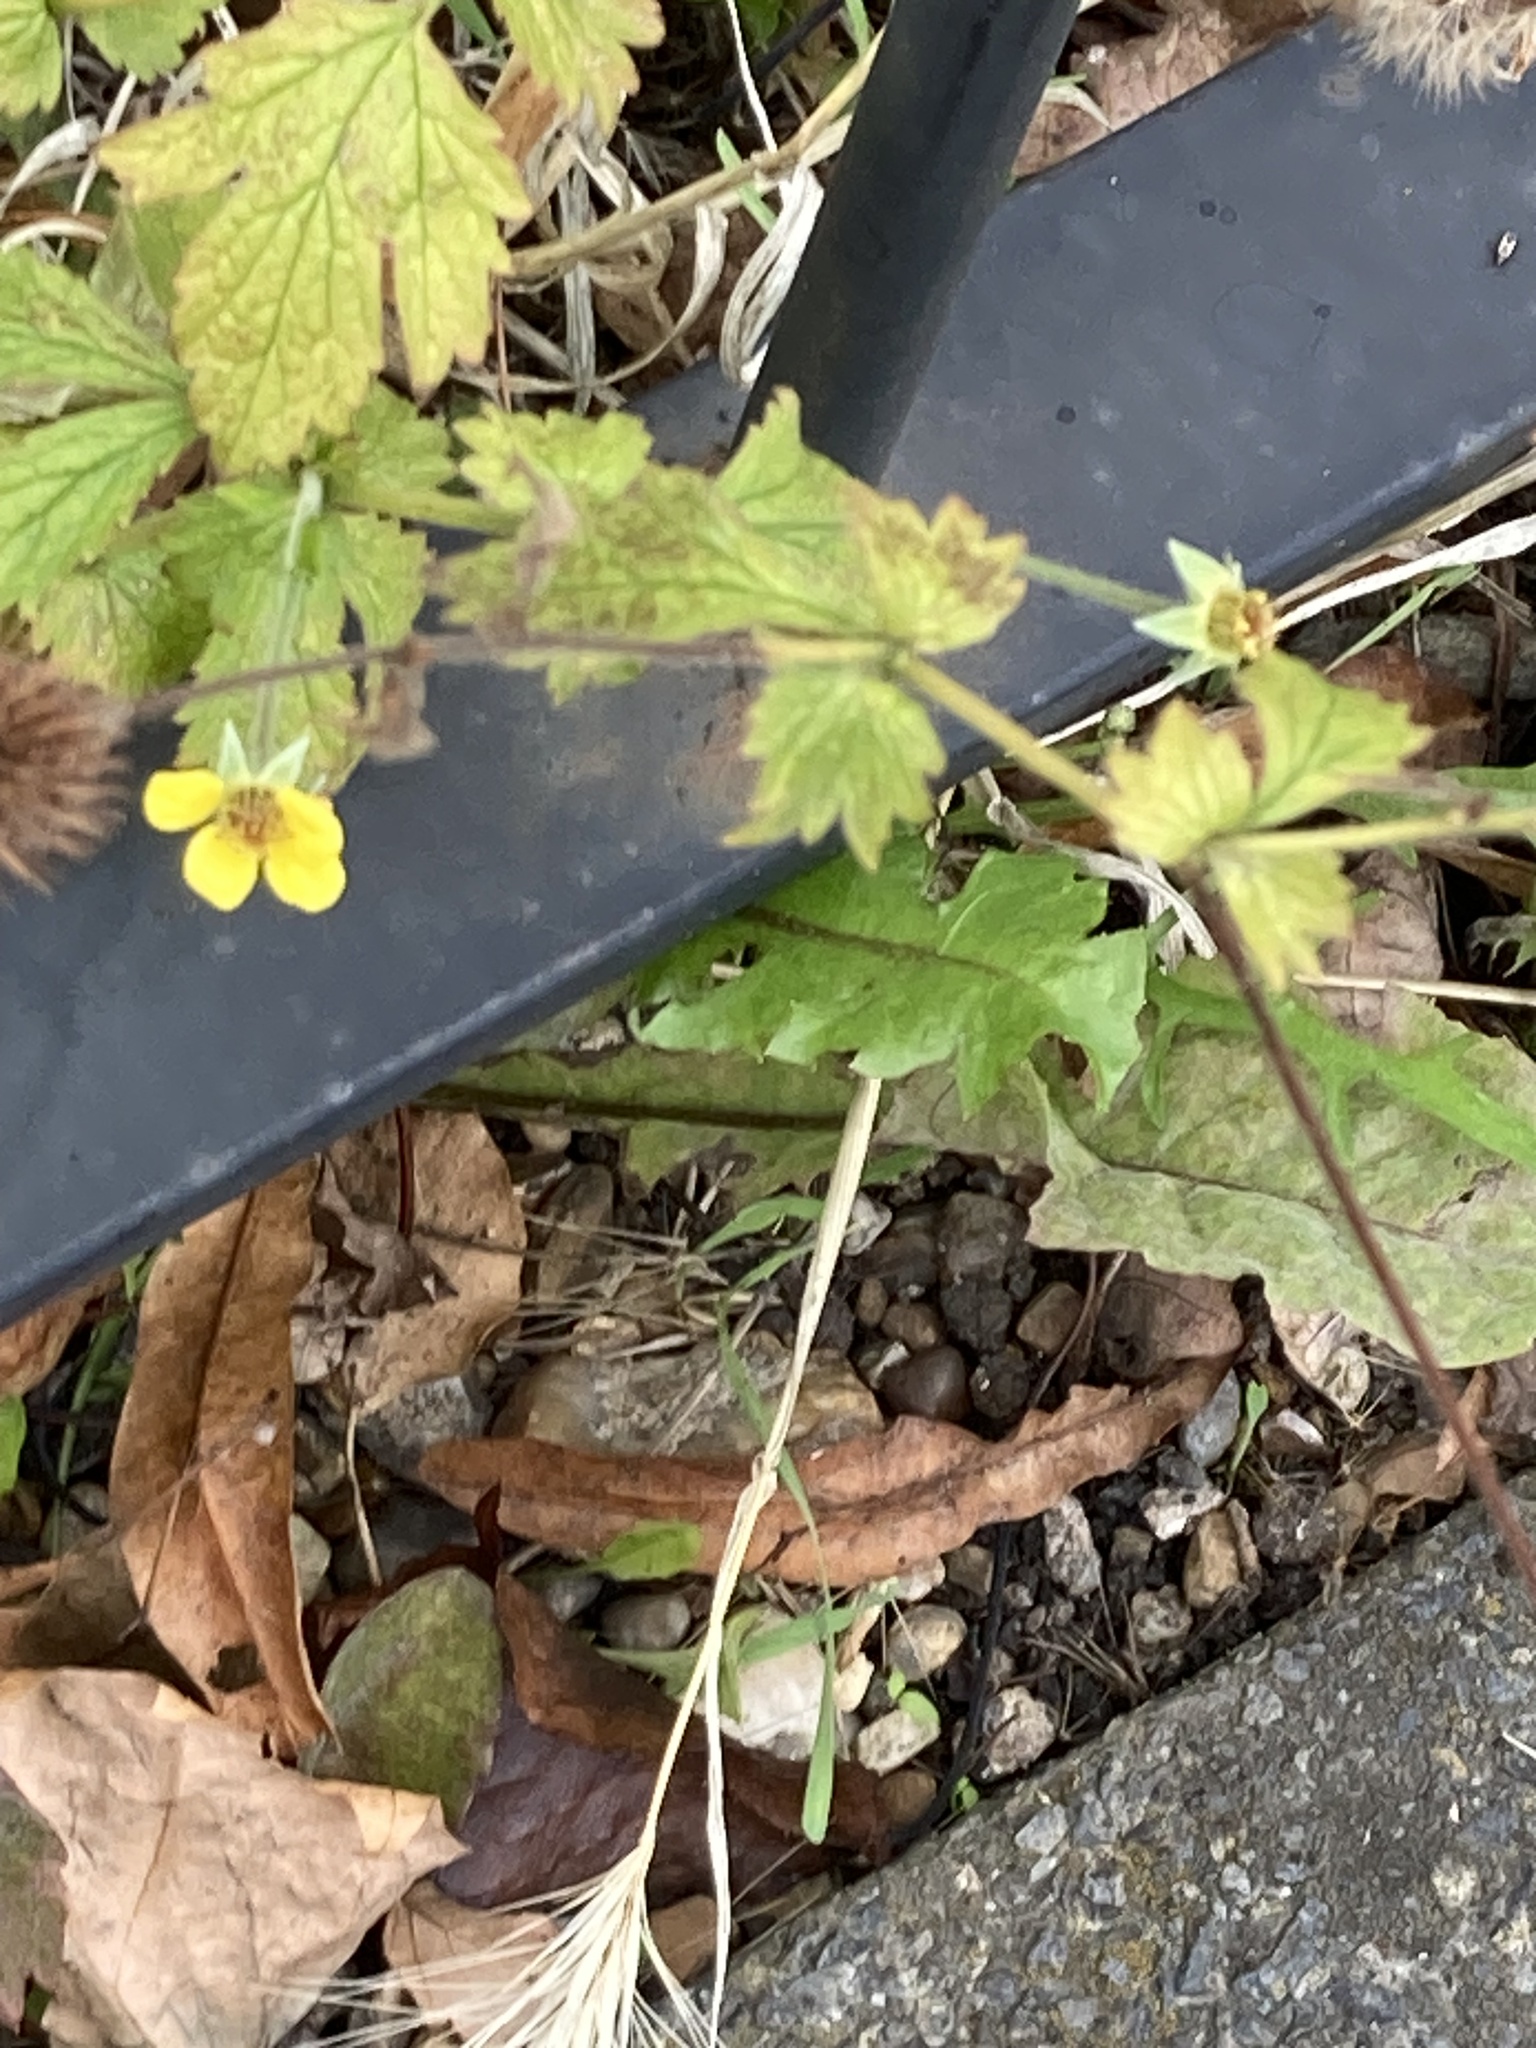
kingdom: Plantae
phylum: Tracheophyta
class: Magnoliopsida
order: Rosales
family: Rosaceae
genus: Geum
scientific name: Geum urbanum
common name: Wood avens
